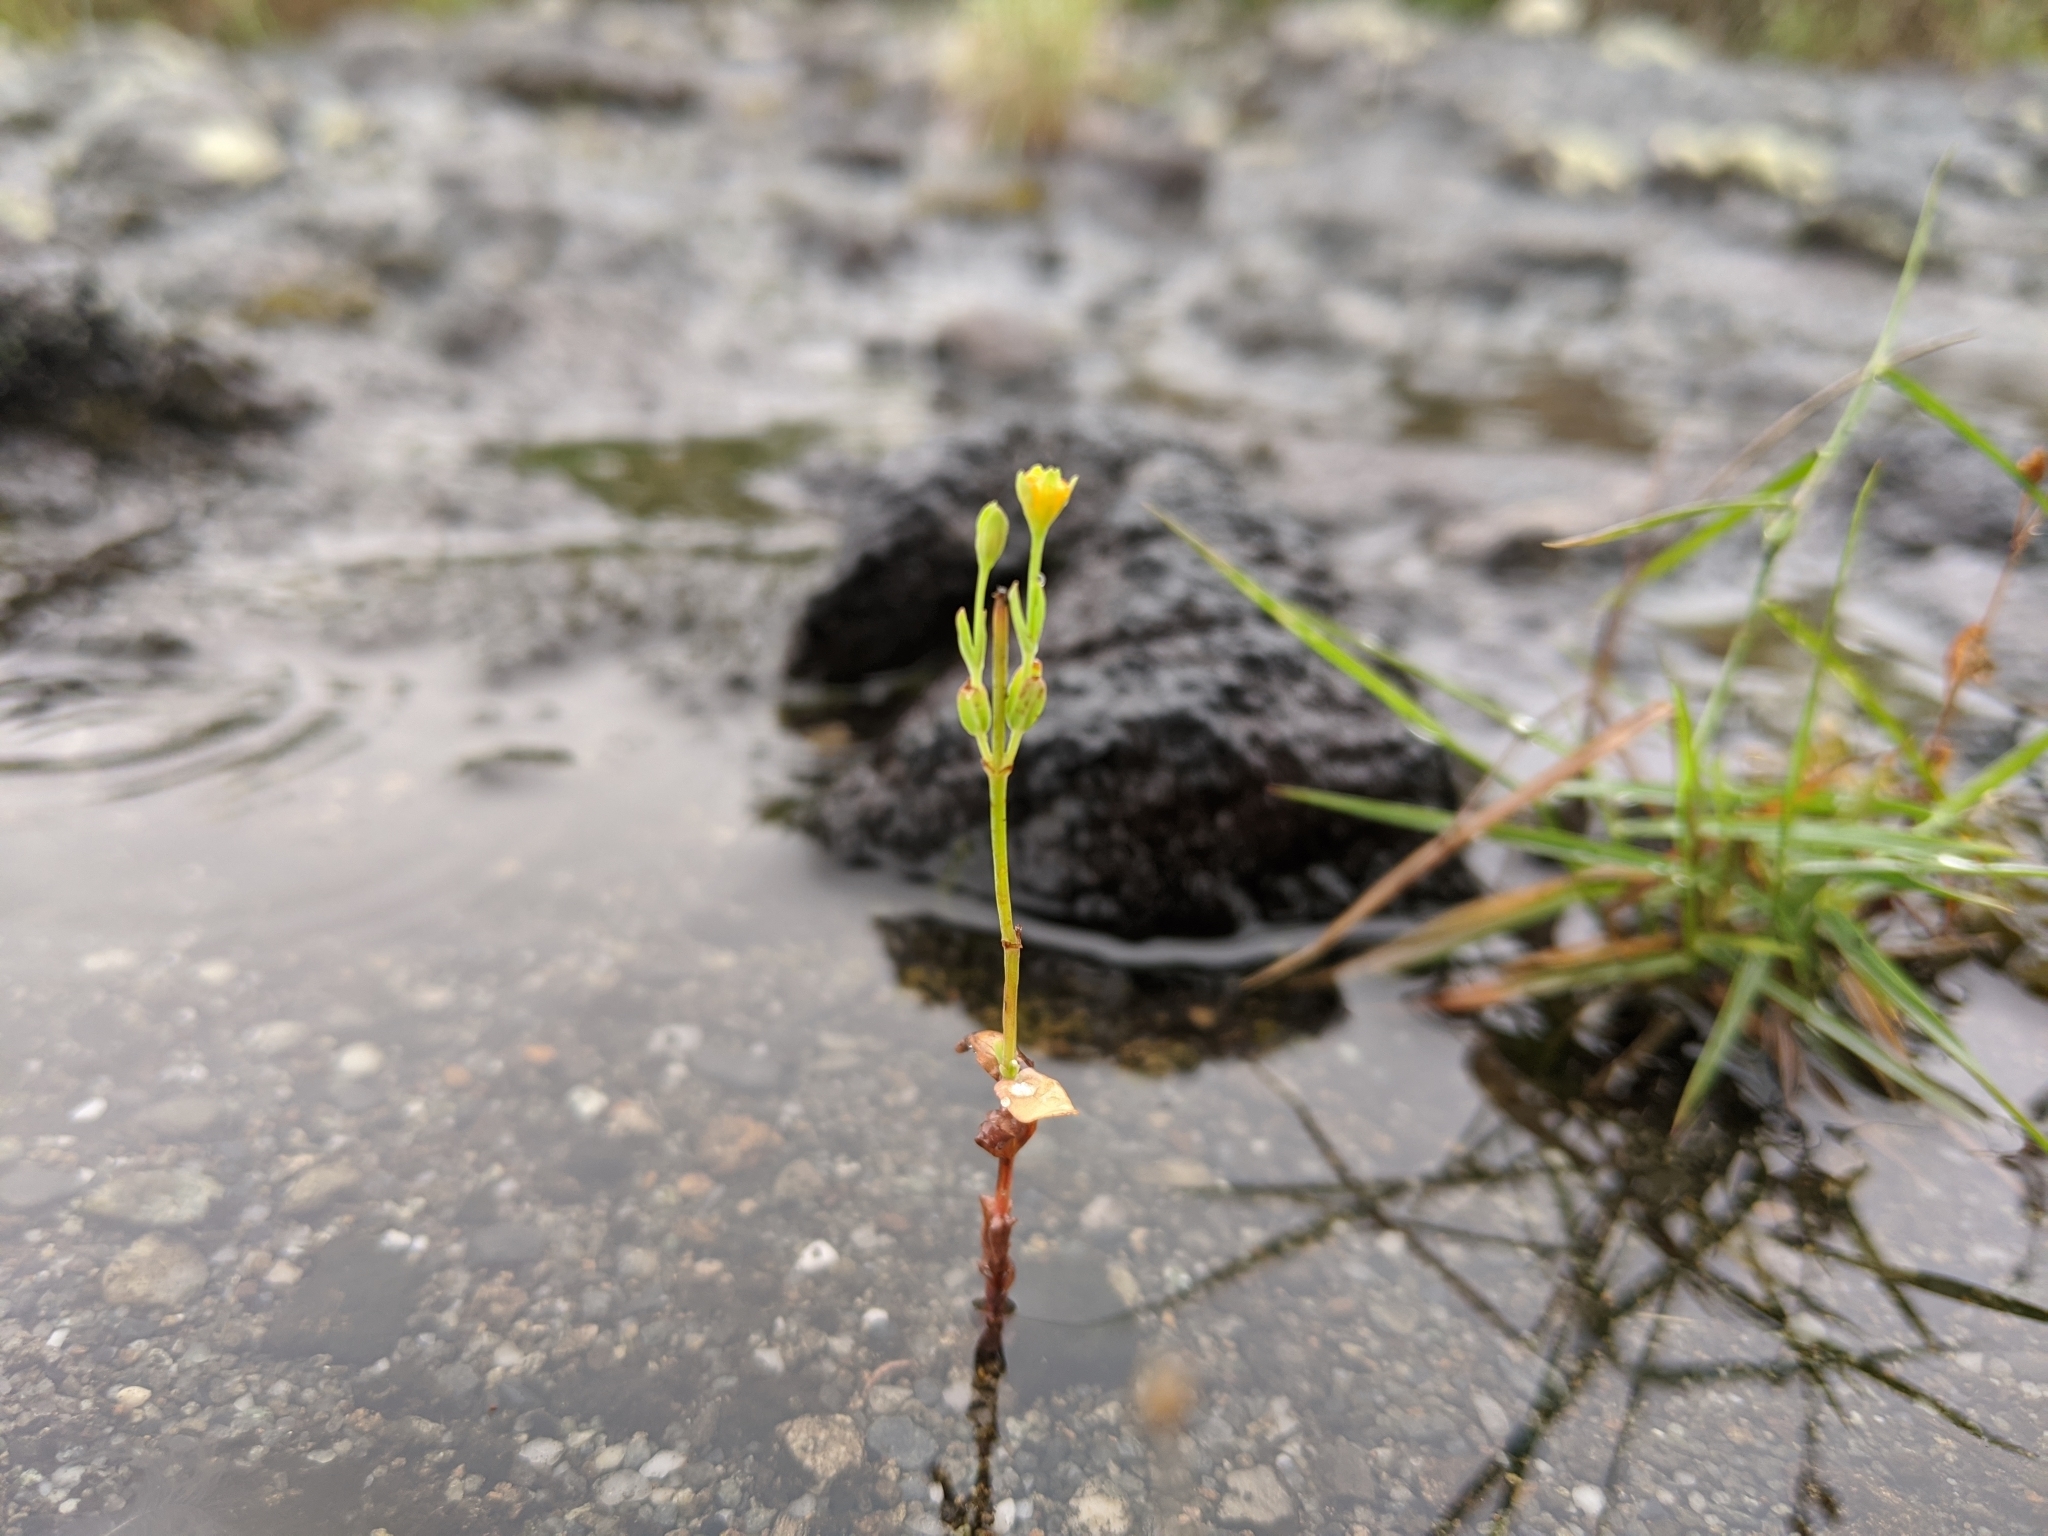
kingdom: Plantae
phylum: Tracheophyta
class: Magnoliopsida
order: Malpighiales
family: Hypericaceae
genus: Hypericum
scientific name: Hypericum gramineum
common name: Grassy st. johnswort
